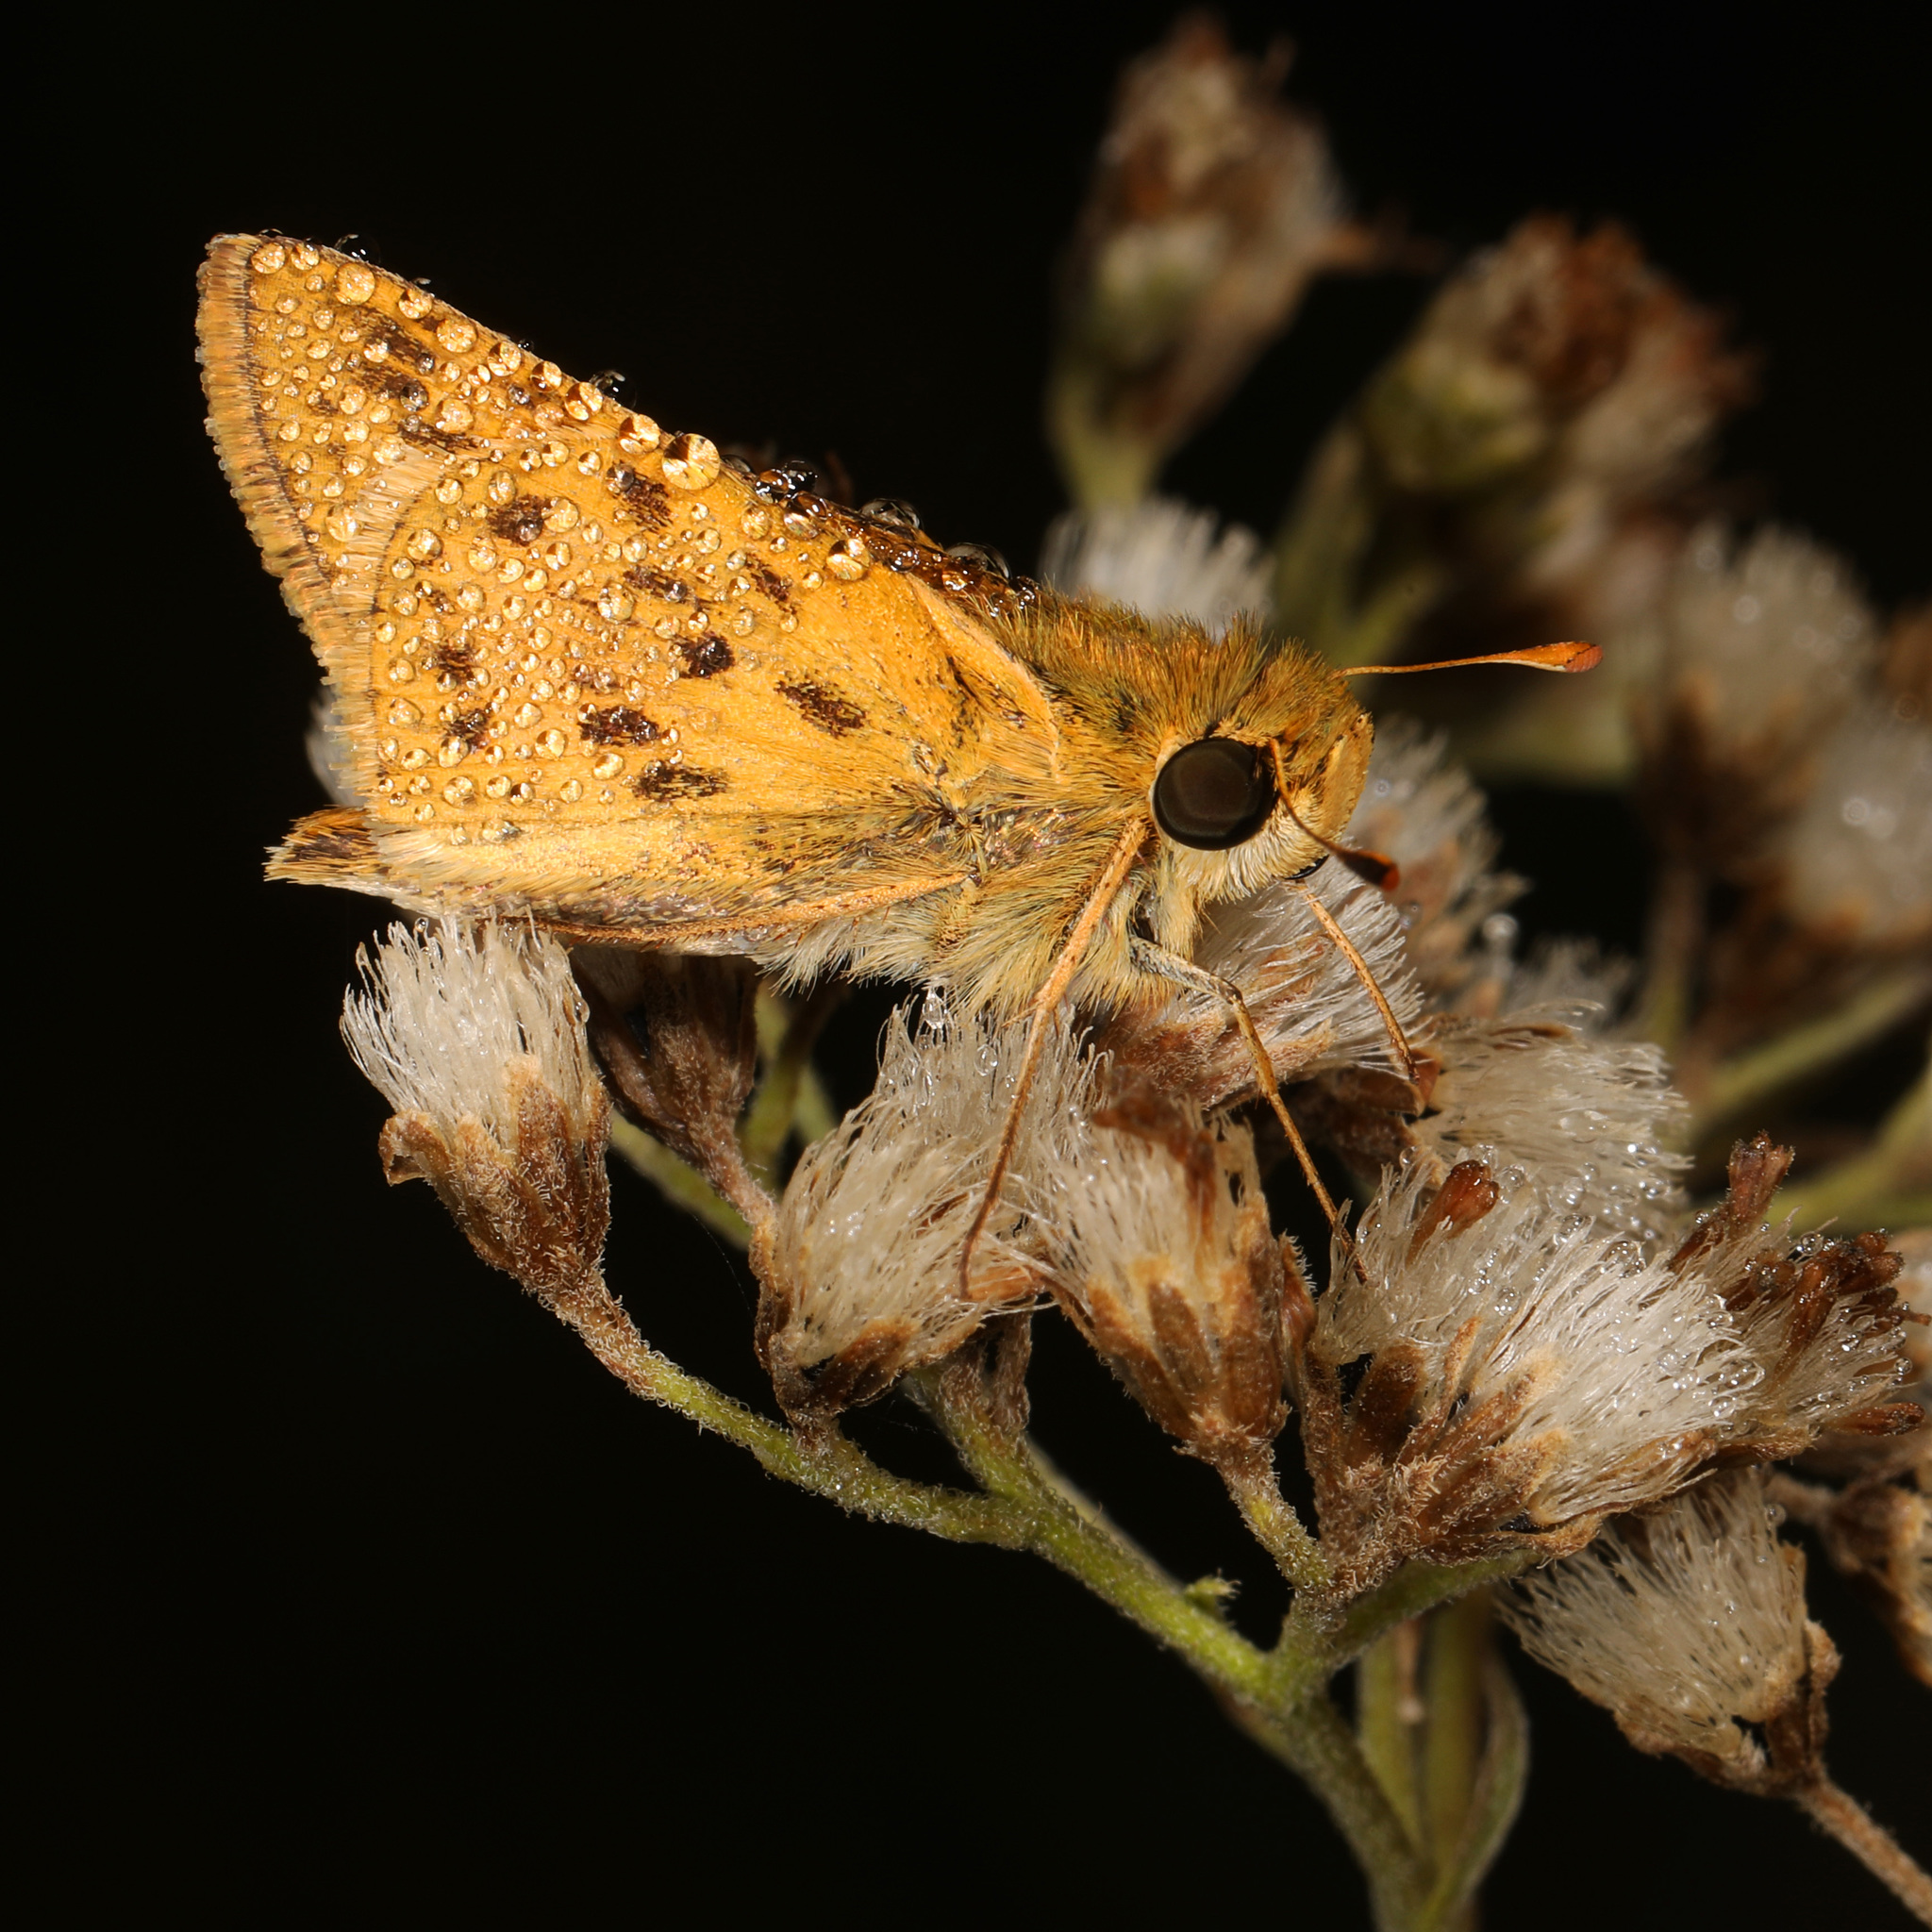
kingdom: Animalia
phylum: Arthropoda
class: Insecta
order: Lepidoptera
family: Hesperiidae
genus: Hylephila
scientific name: Hylephila phyleus
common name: Fiery skipper
